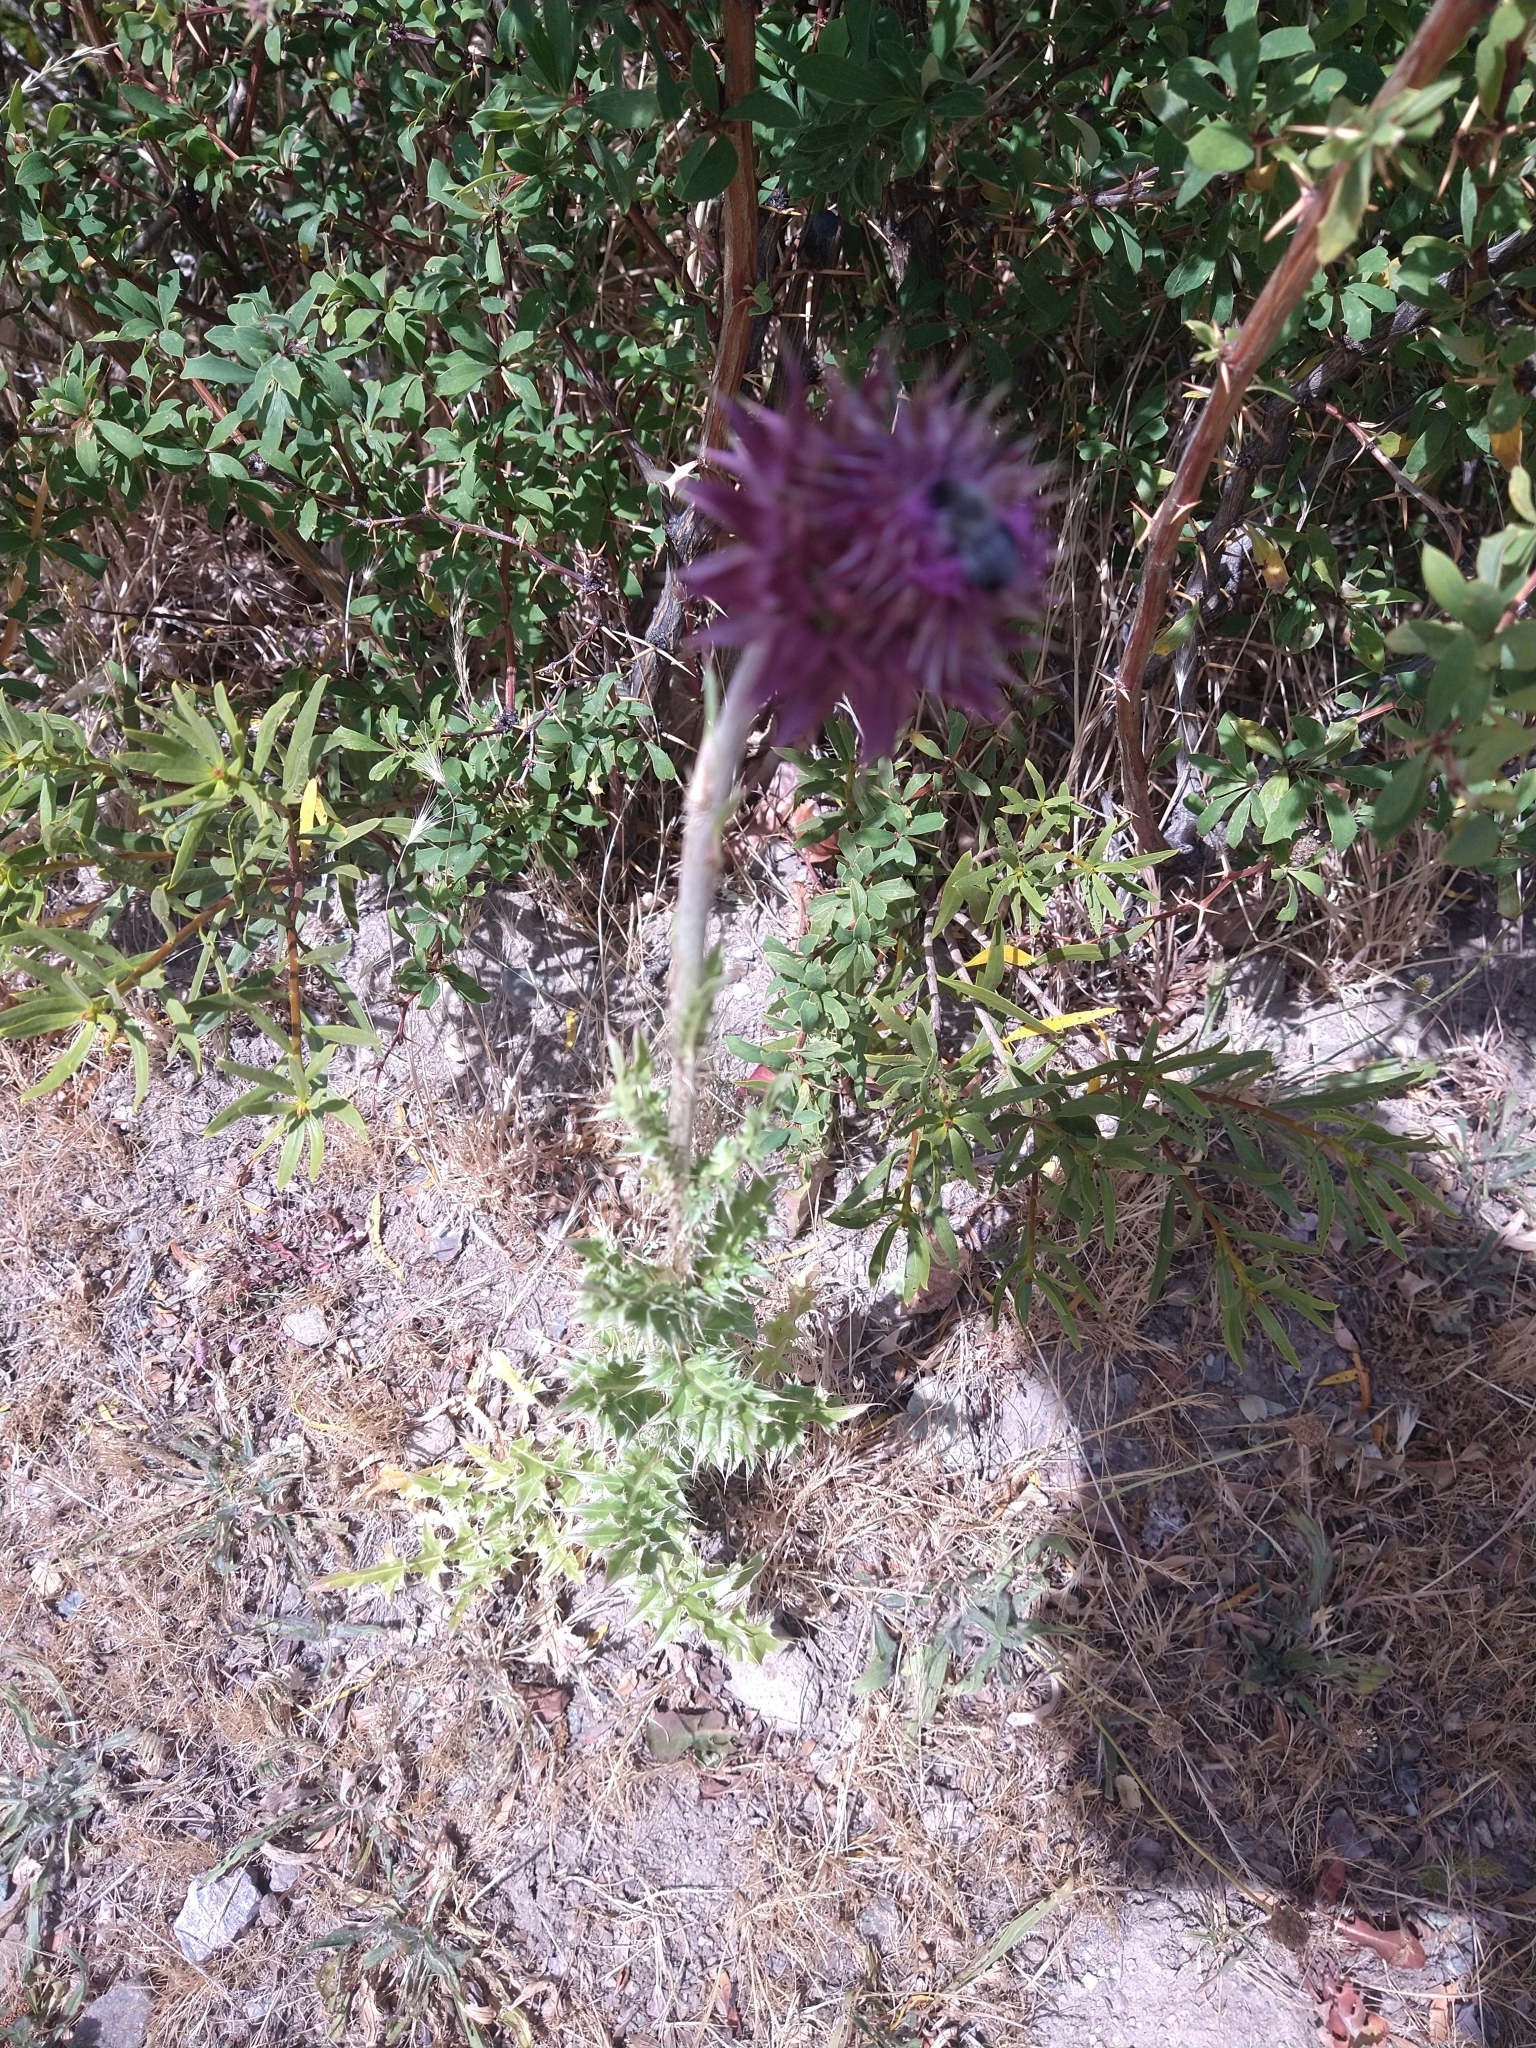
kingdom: Plantae
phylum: Tracheophyta
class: Magnoliopsida
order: Asterales
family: Asteraceae
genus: Carduus
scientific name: Carduus nutans
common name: Musk thistle
